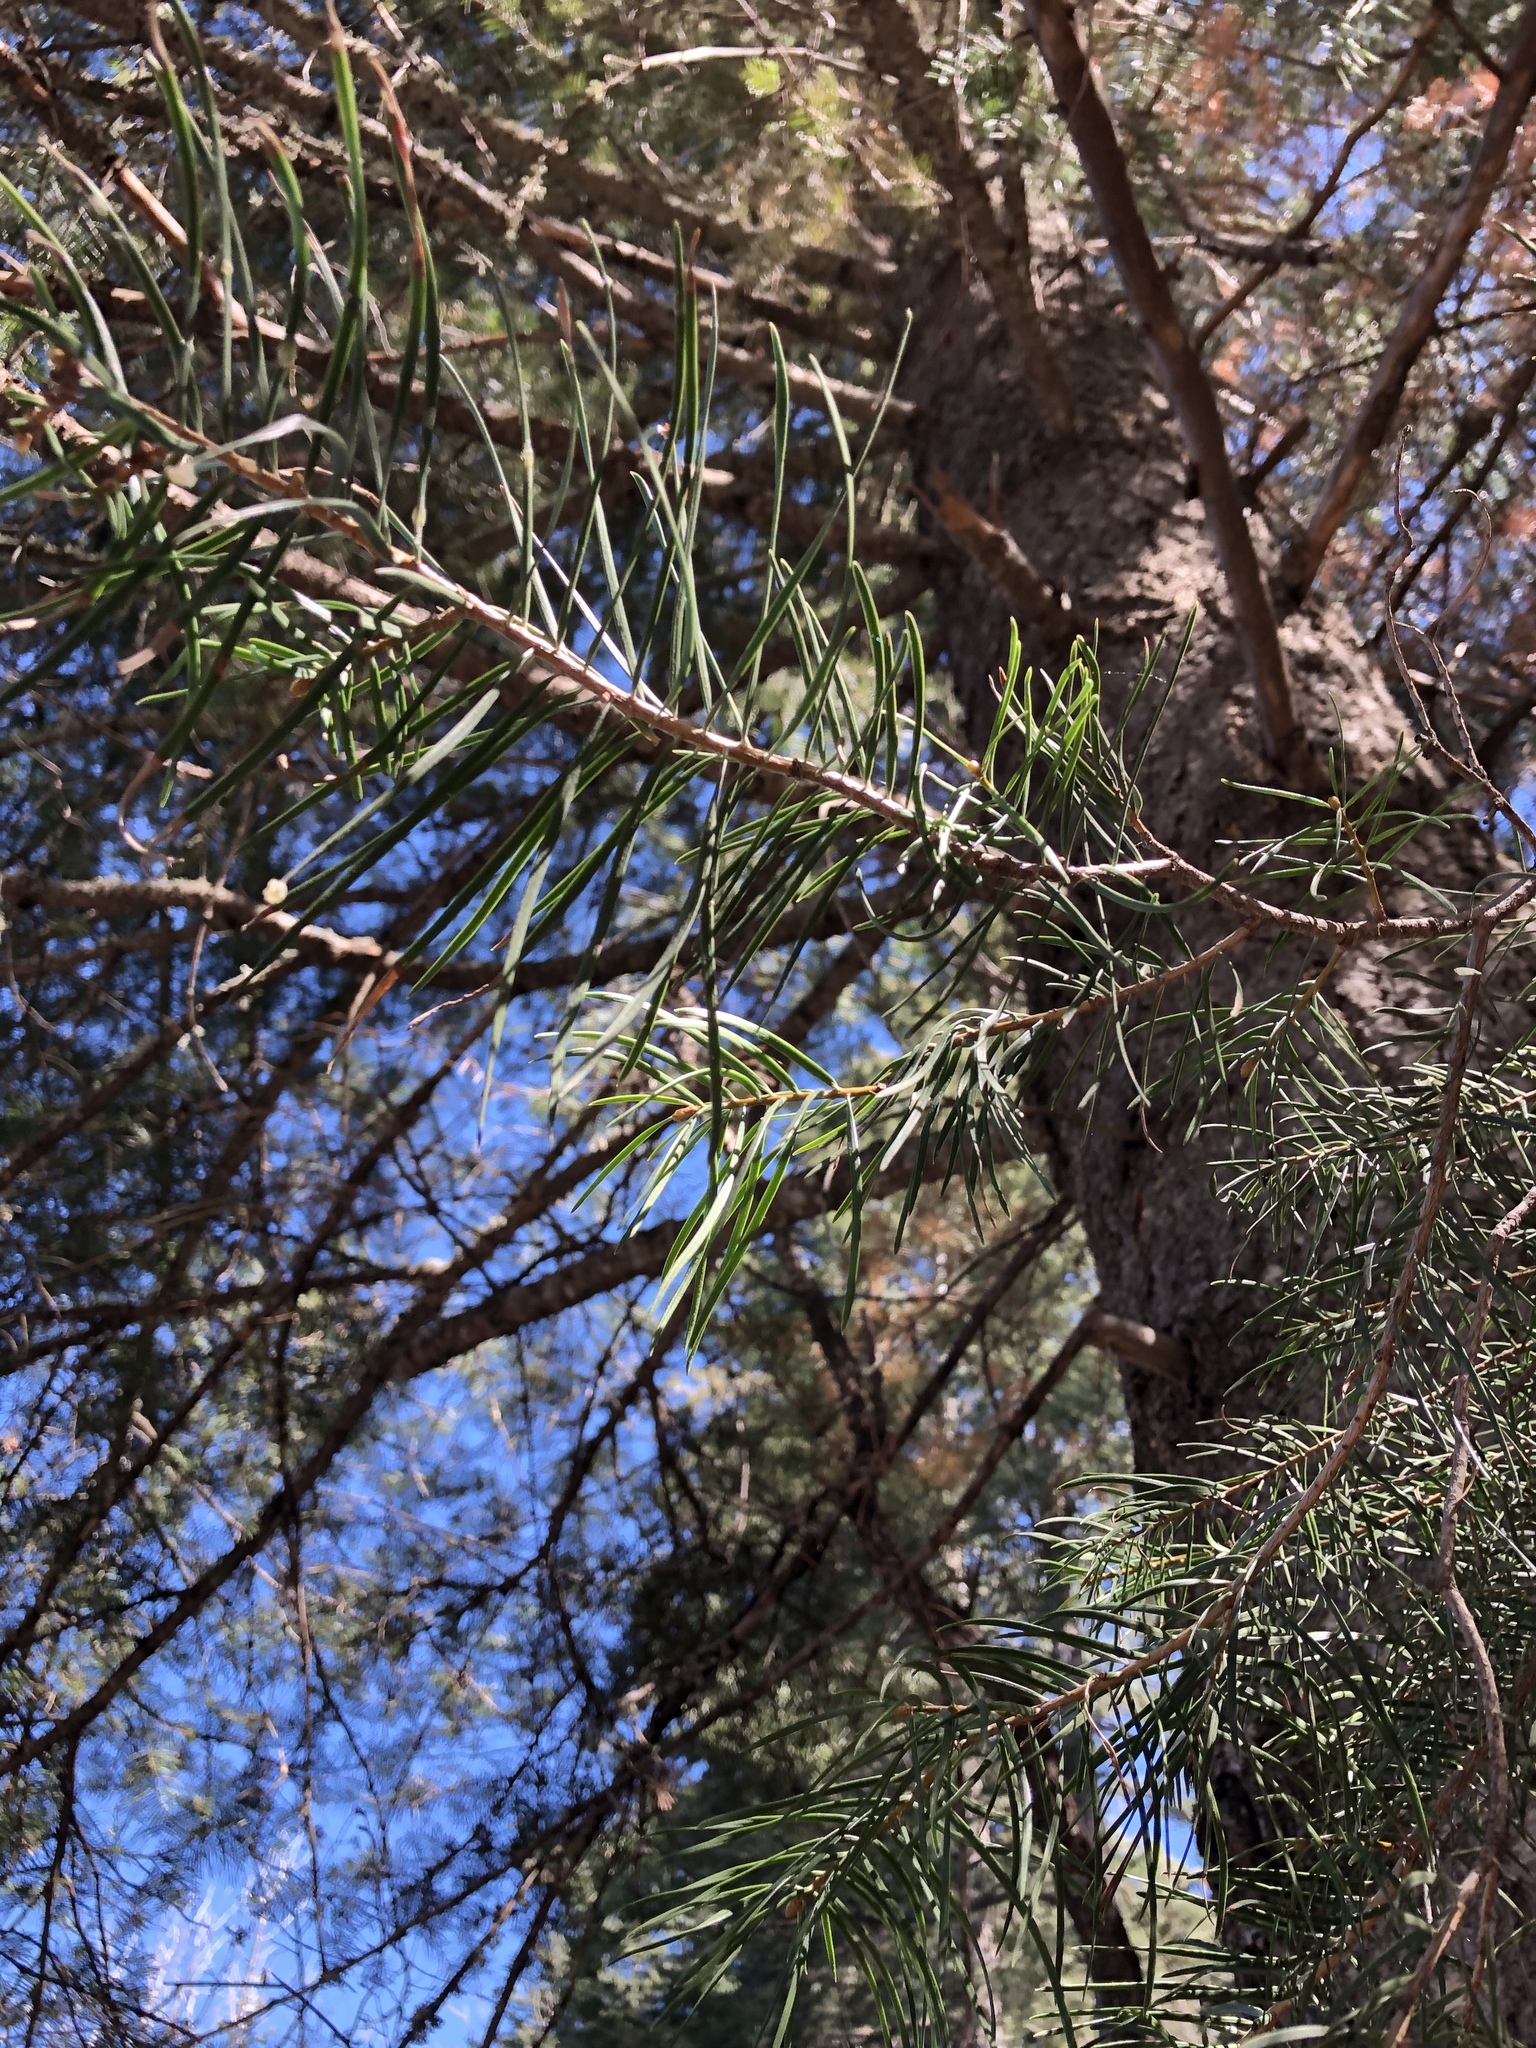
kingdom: Plantae
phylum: Tracheophyta
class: Pinopsida
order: Pinales
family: Pinaceae
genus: Abies
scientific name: Abies concolor
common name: Colorado fir
